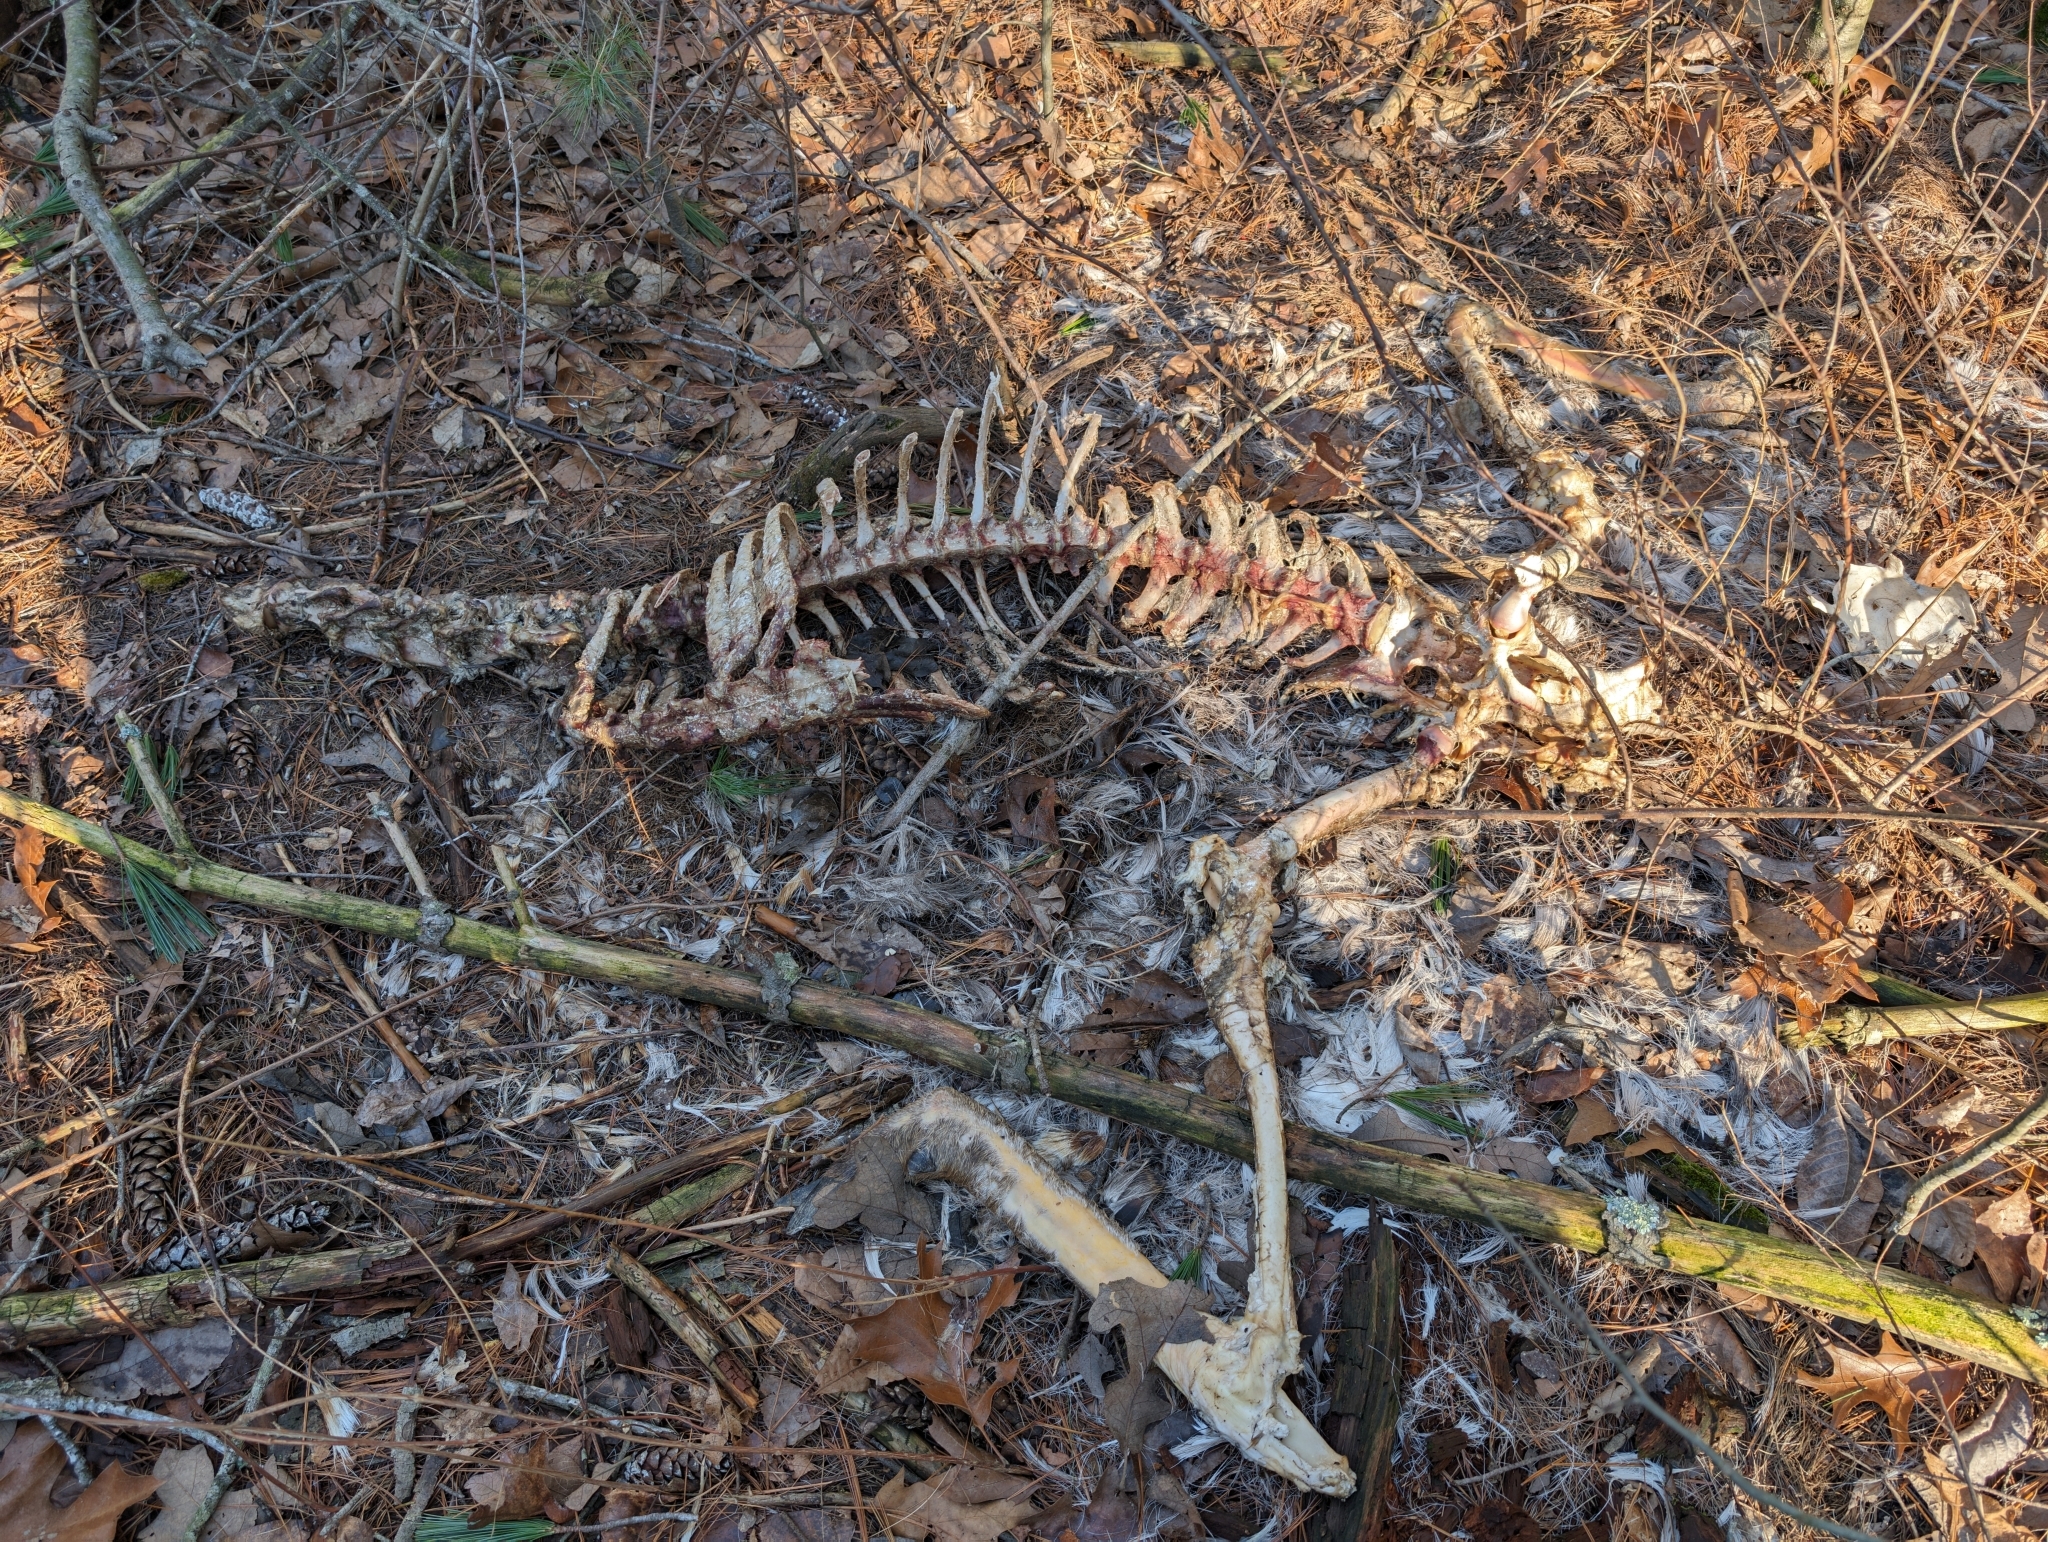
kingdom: Animalia
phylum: Chordata
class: Mammalia
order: Artiodactyla
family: Cervidae
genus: Odocoileus
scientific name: Odocoileus virginianus
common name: White-tailed deer
